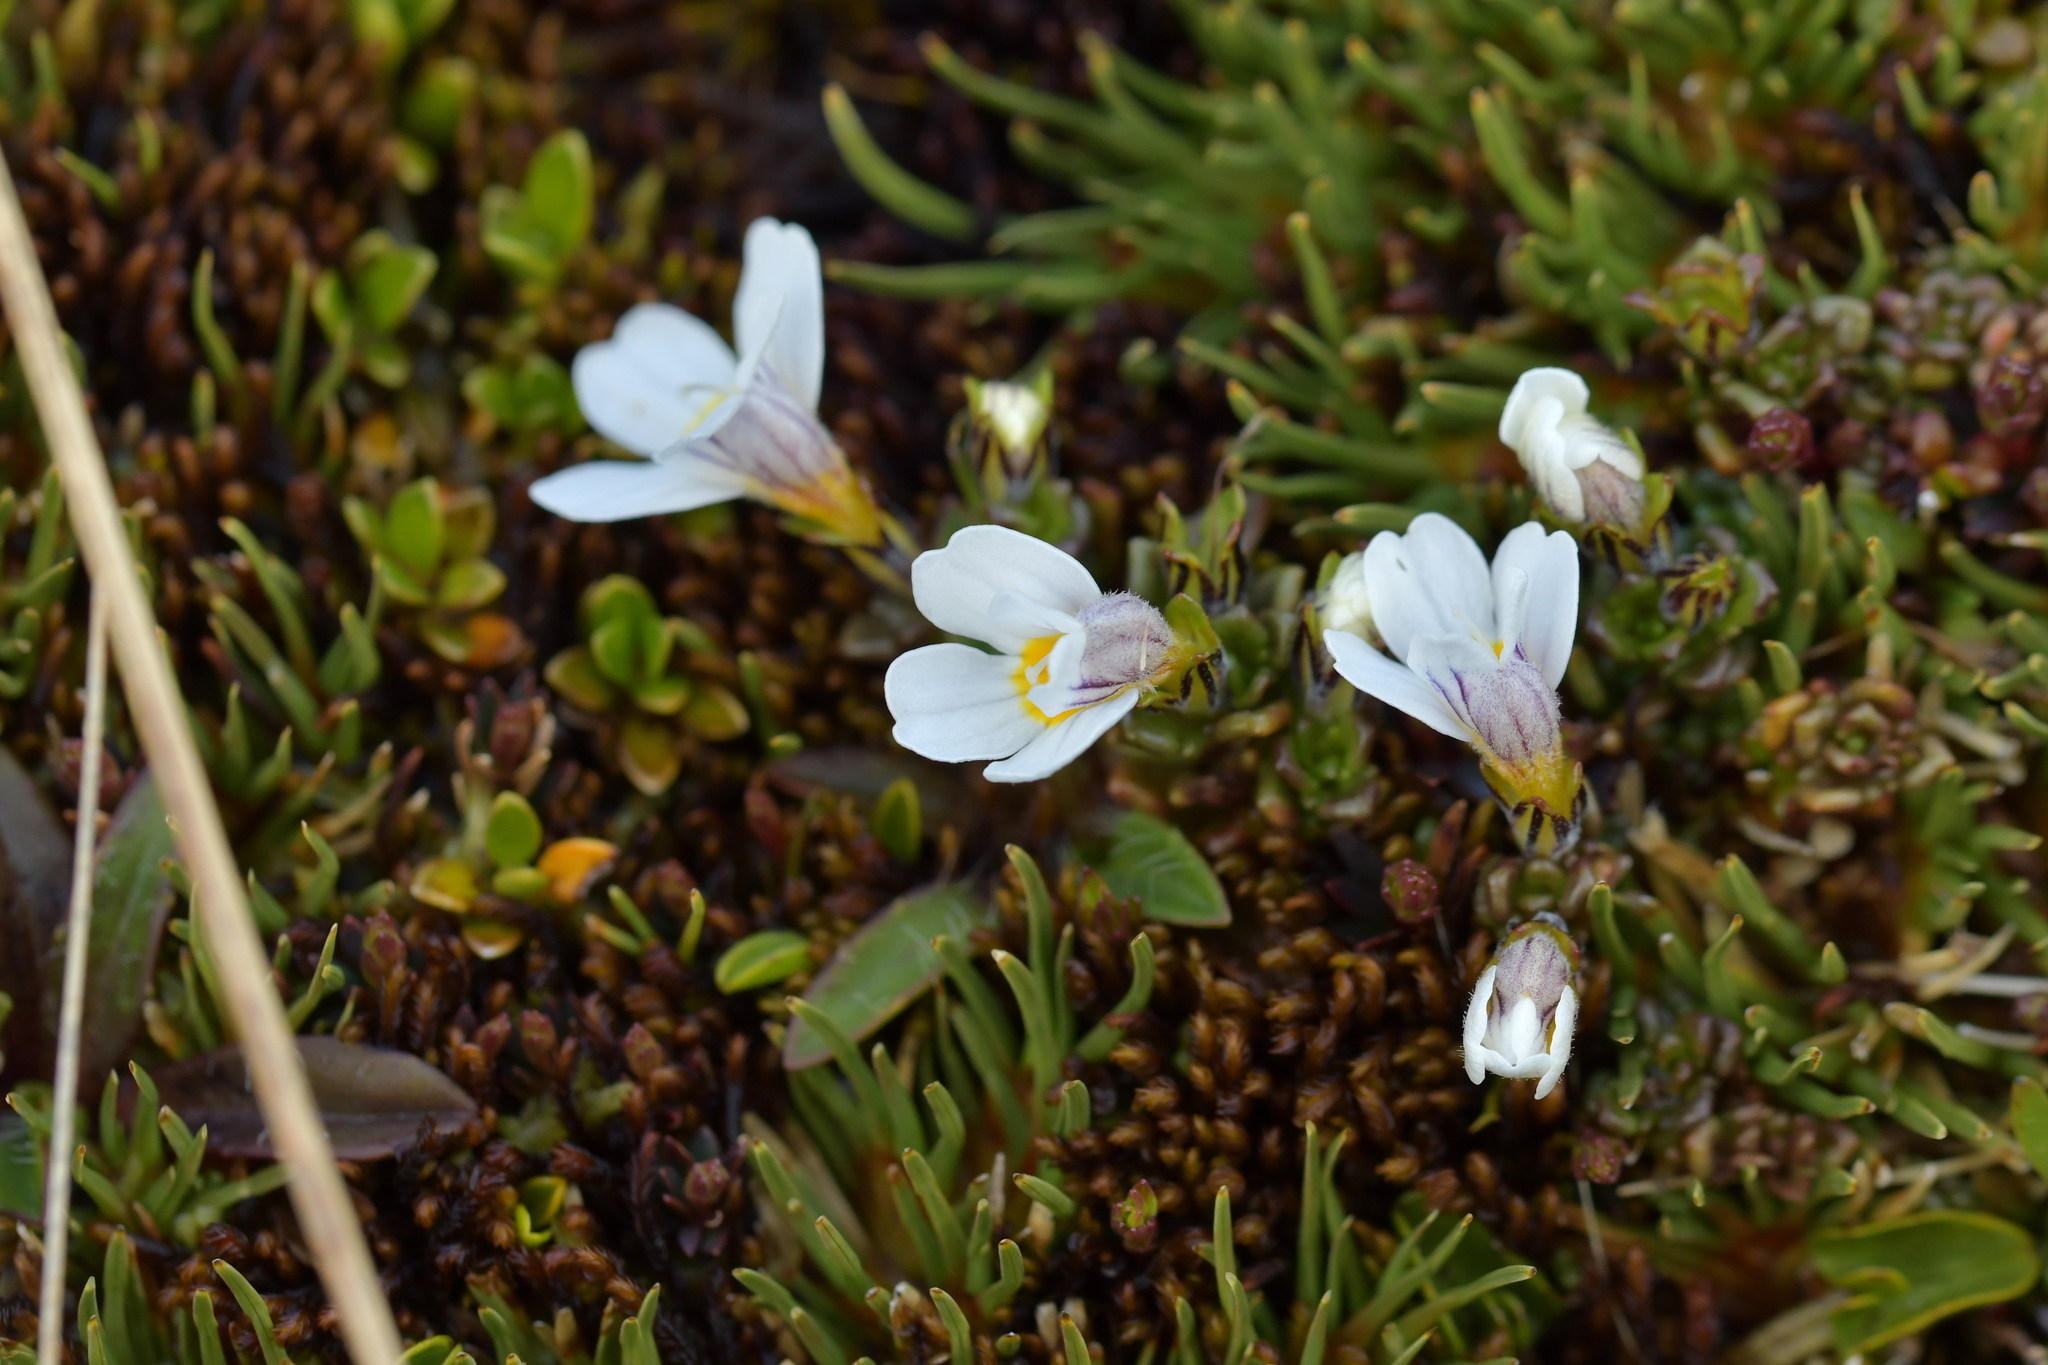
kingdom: Plantae
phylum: Tracheophyta
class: Magnoliopsida
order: Lamiales
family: Orobanchaceae
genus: Euphrasia
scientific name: Euphrasia revoluta
